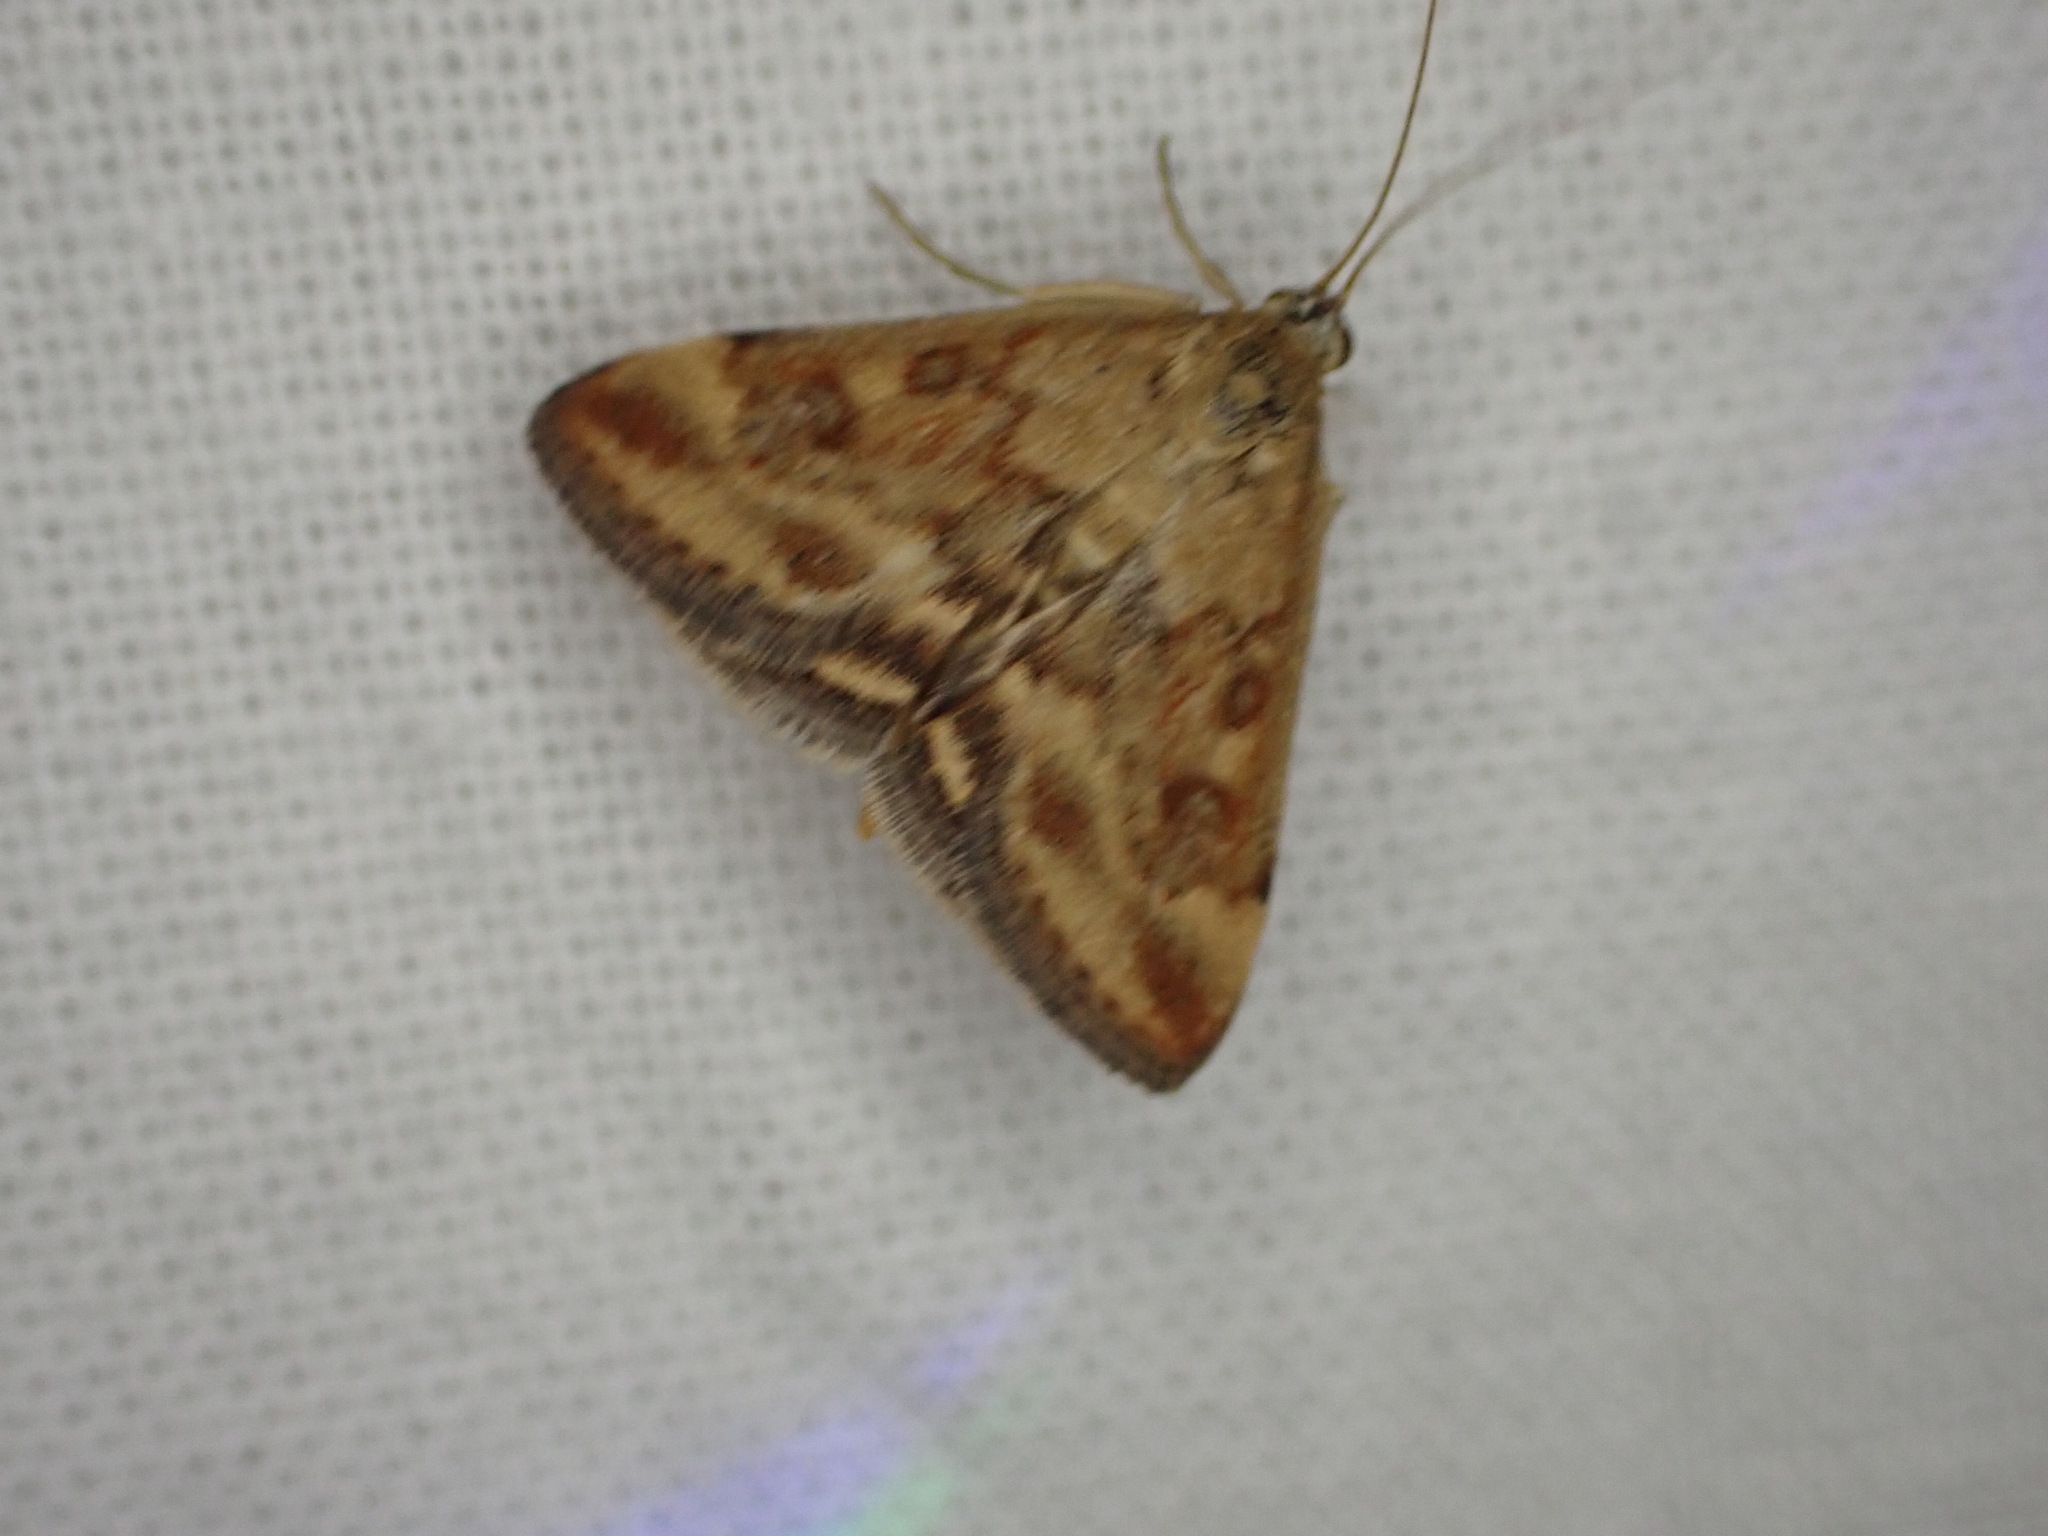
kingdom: Animalia
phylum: Arthropoda
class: Insecta
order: Lepidoptera
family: Crambidae
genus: Pyrausta
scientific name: Pyrausta despicata
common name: Straw-barred pearl
